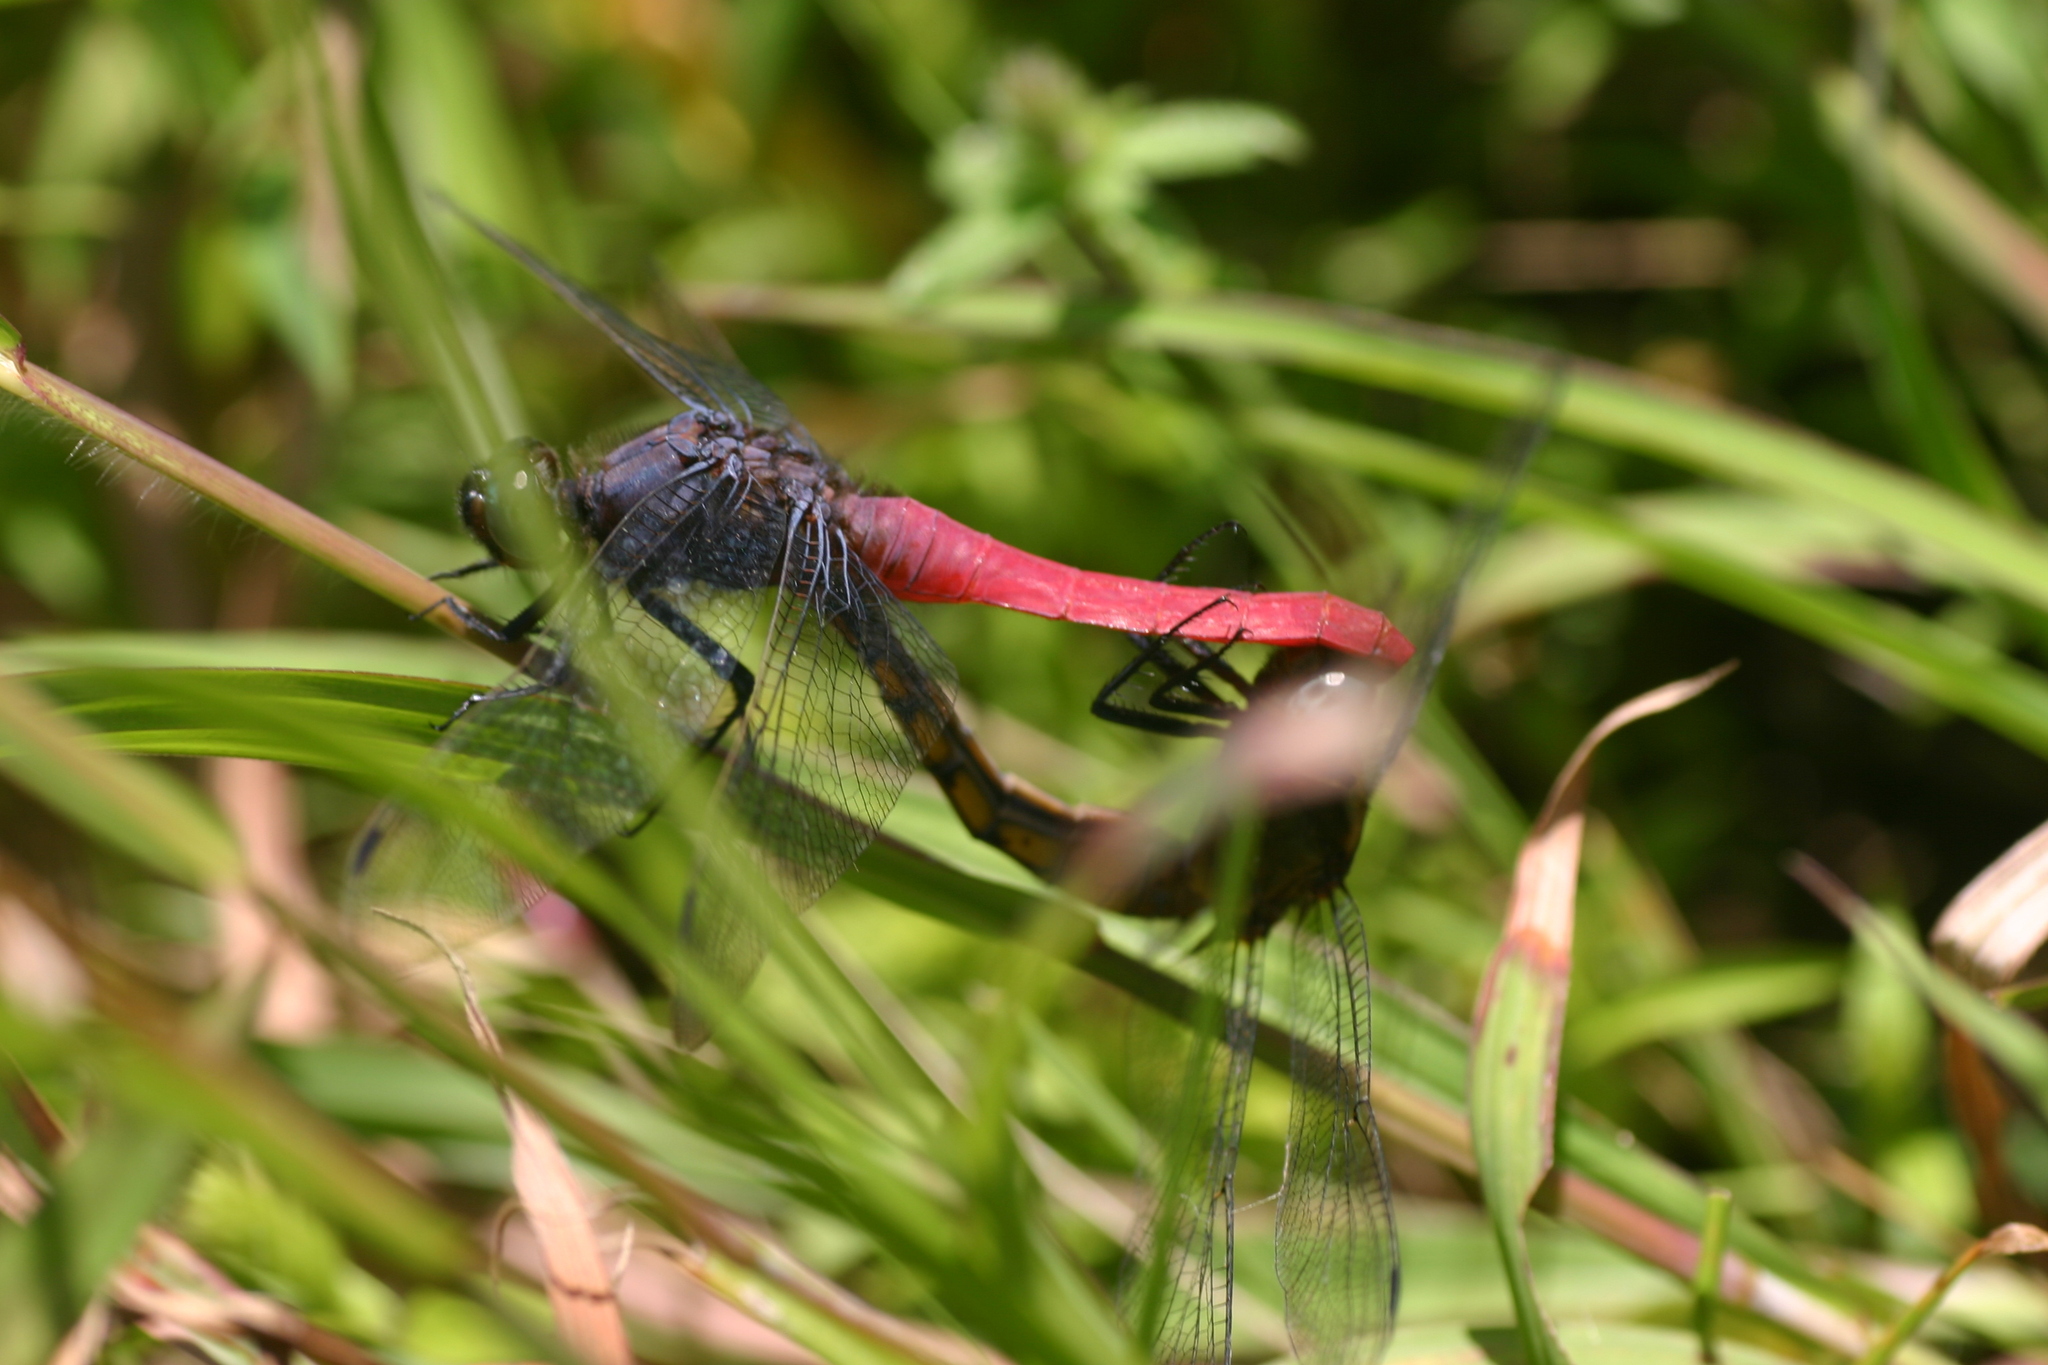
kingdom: Animalia
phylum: Arthropoda
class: Insecta
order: Odonata
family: Libellulidae
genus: Orthetrum
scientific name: Orthetrum pruinosum
